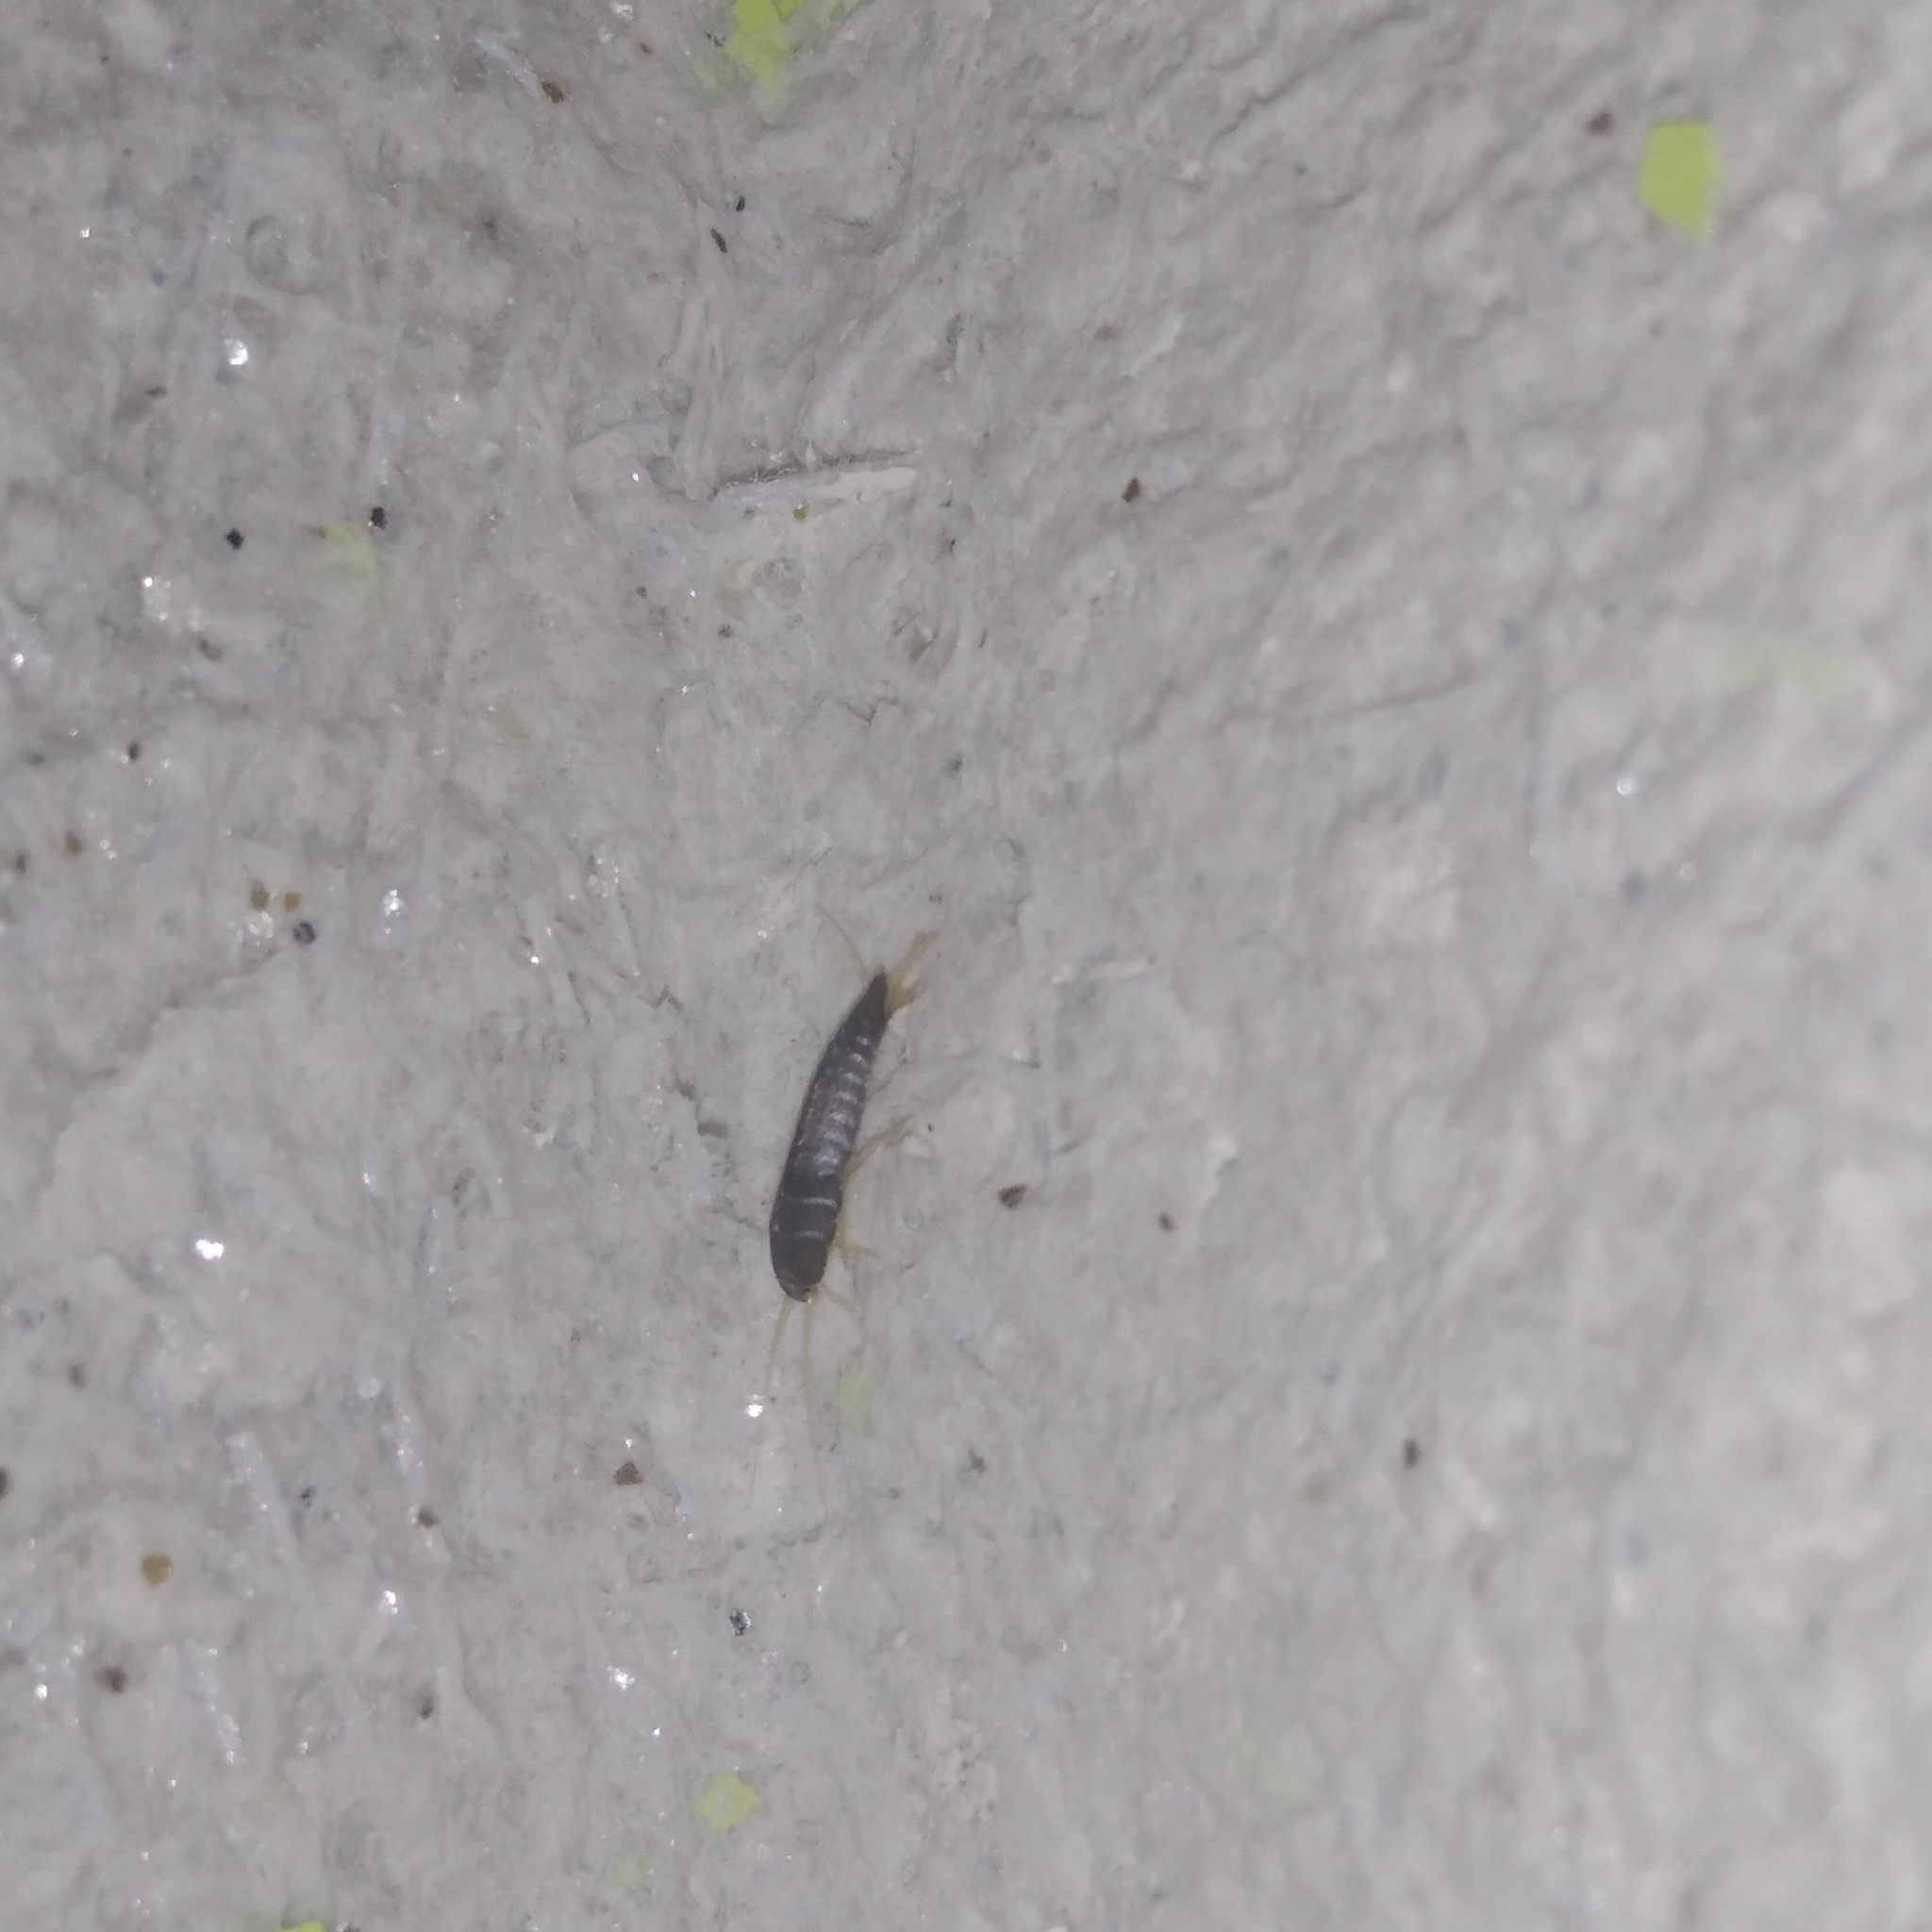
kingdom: Animalia
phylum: Arthropoda
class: Insecta
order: Zygentoma
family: Lepismatidae
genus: Lepisma
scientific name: Lepisma saccharinum
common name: Silverfish
